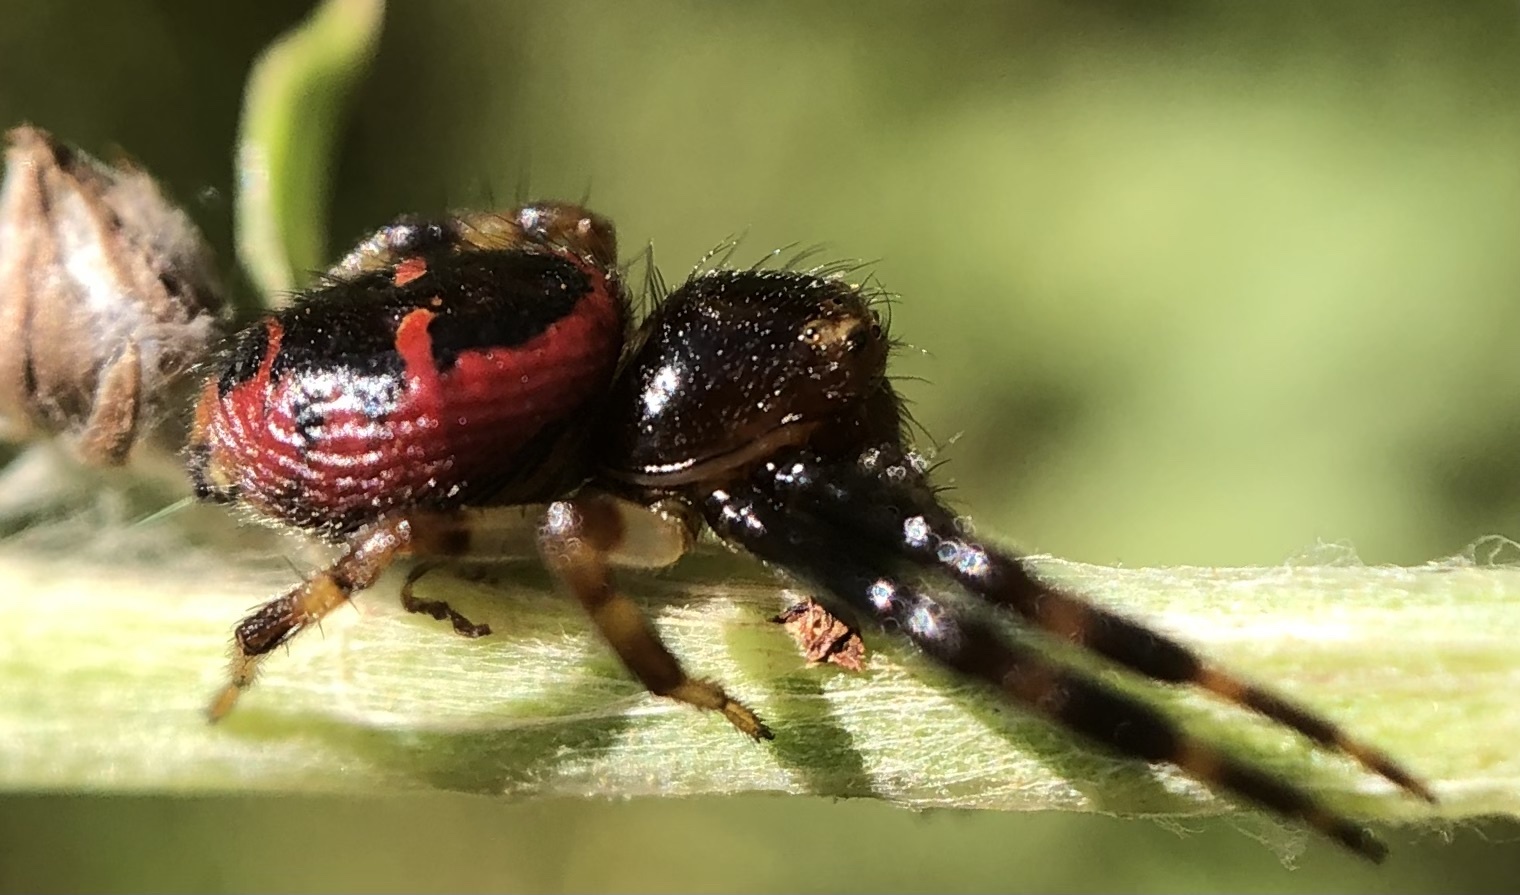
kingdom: Animalia
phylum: Arthropoda
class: Arachnida
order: Araneae
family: Thomisidae
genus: Synema
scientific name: Synema globosum
